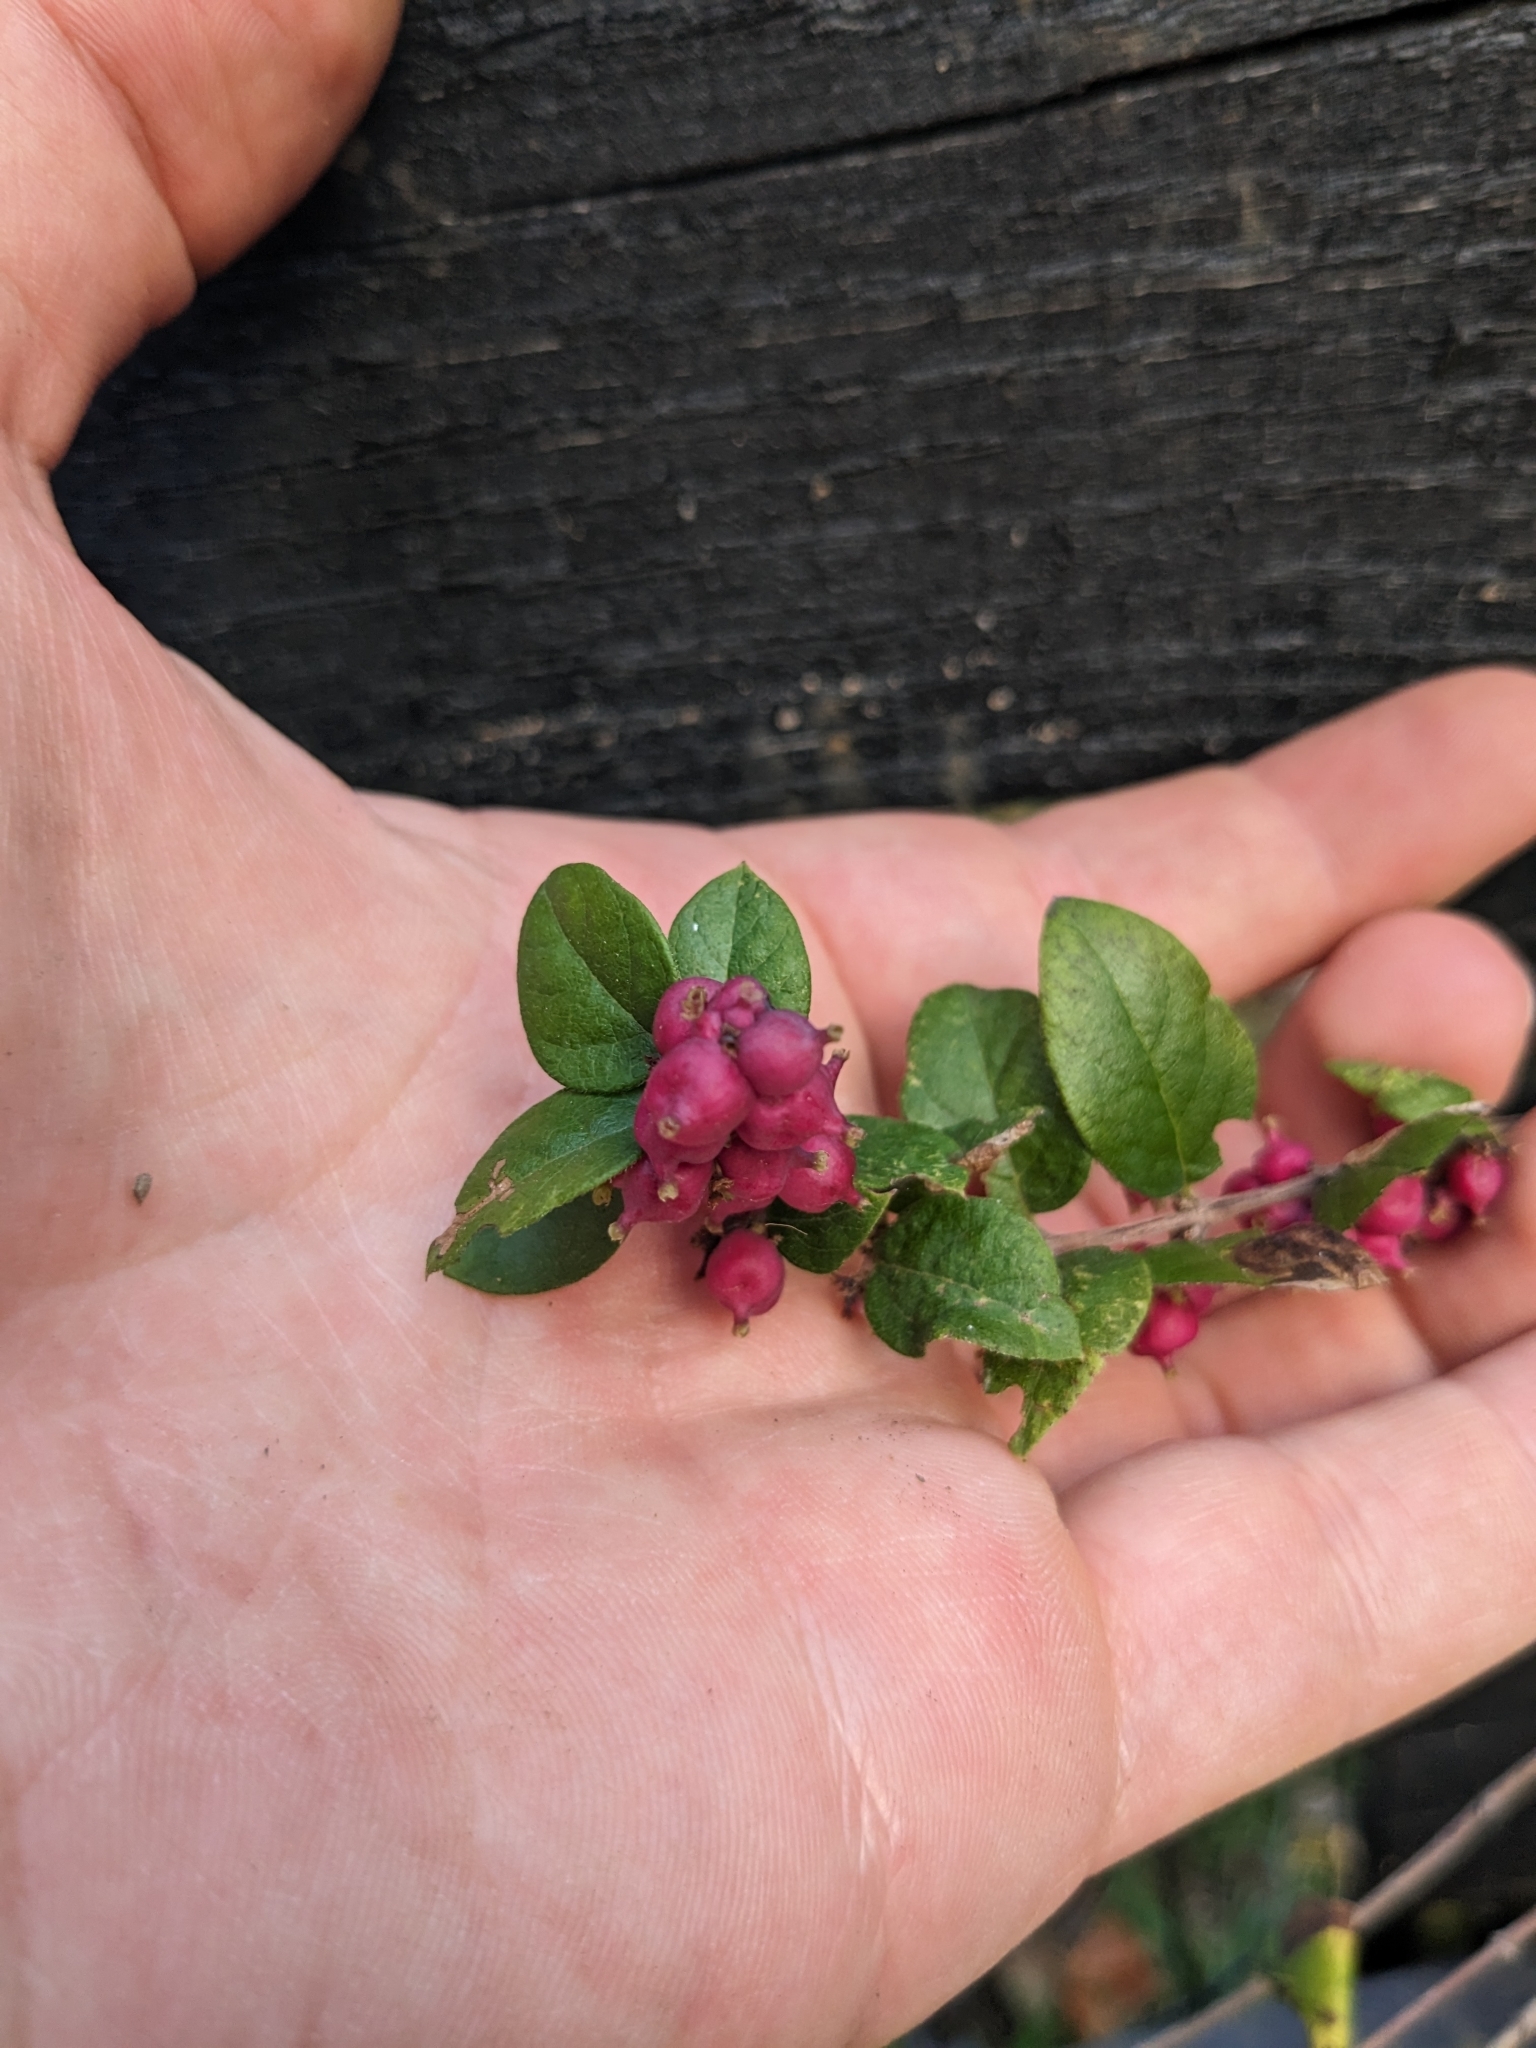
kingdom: Plantae
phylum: Tracheophyta
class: Magnoliopsida
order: Dipsacales
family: Caprifoliaceae
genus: Symphoricarpos
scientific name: Symphoricarpos orbiculatus
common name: Coralberry
